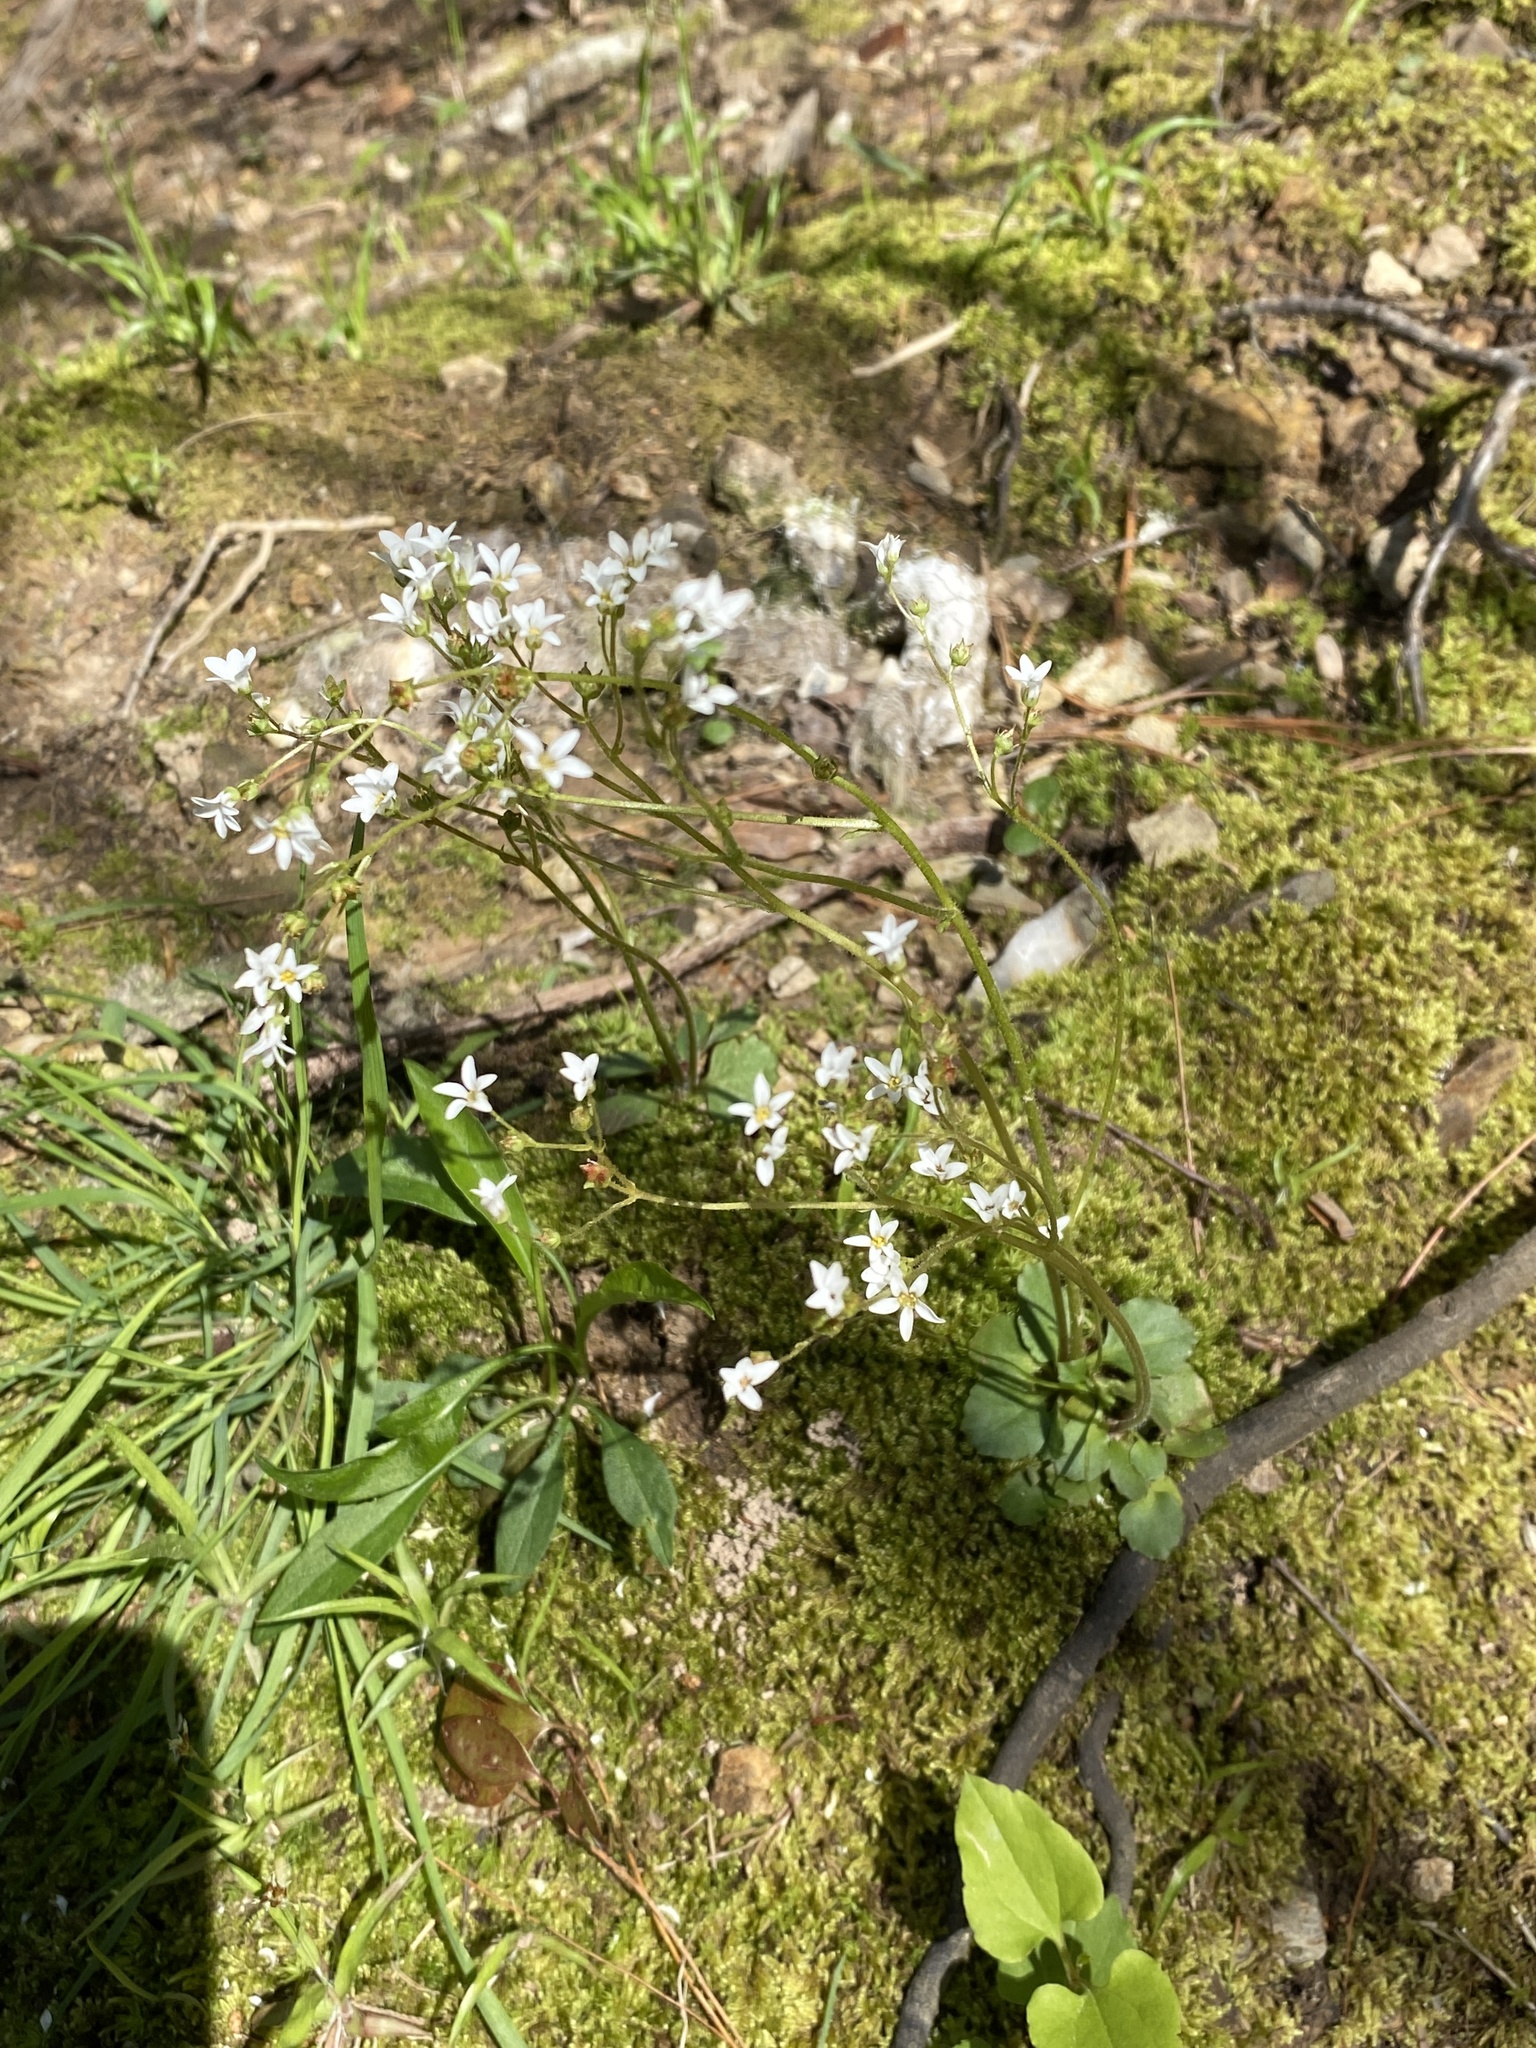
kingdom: Plantae
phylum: Tracheophyta
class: Magnoliopsida
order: Saxifragales
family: Saxifragaceae
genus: Micranthes
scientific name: Micranthes virginiensis
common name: Early saxifrage
